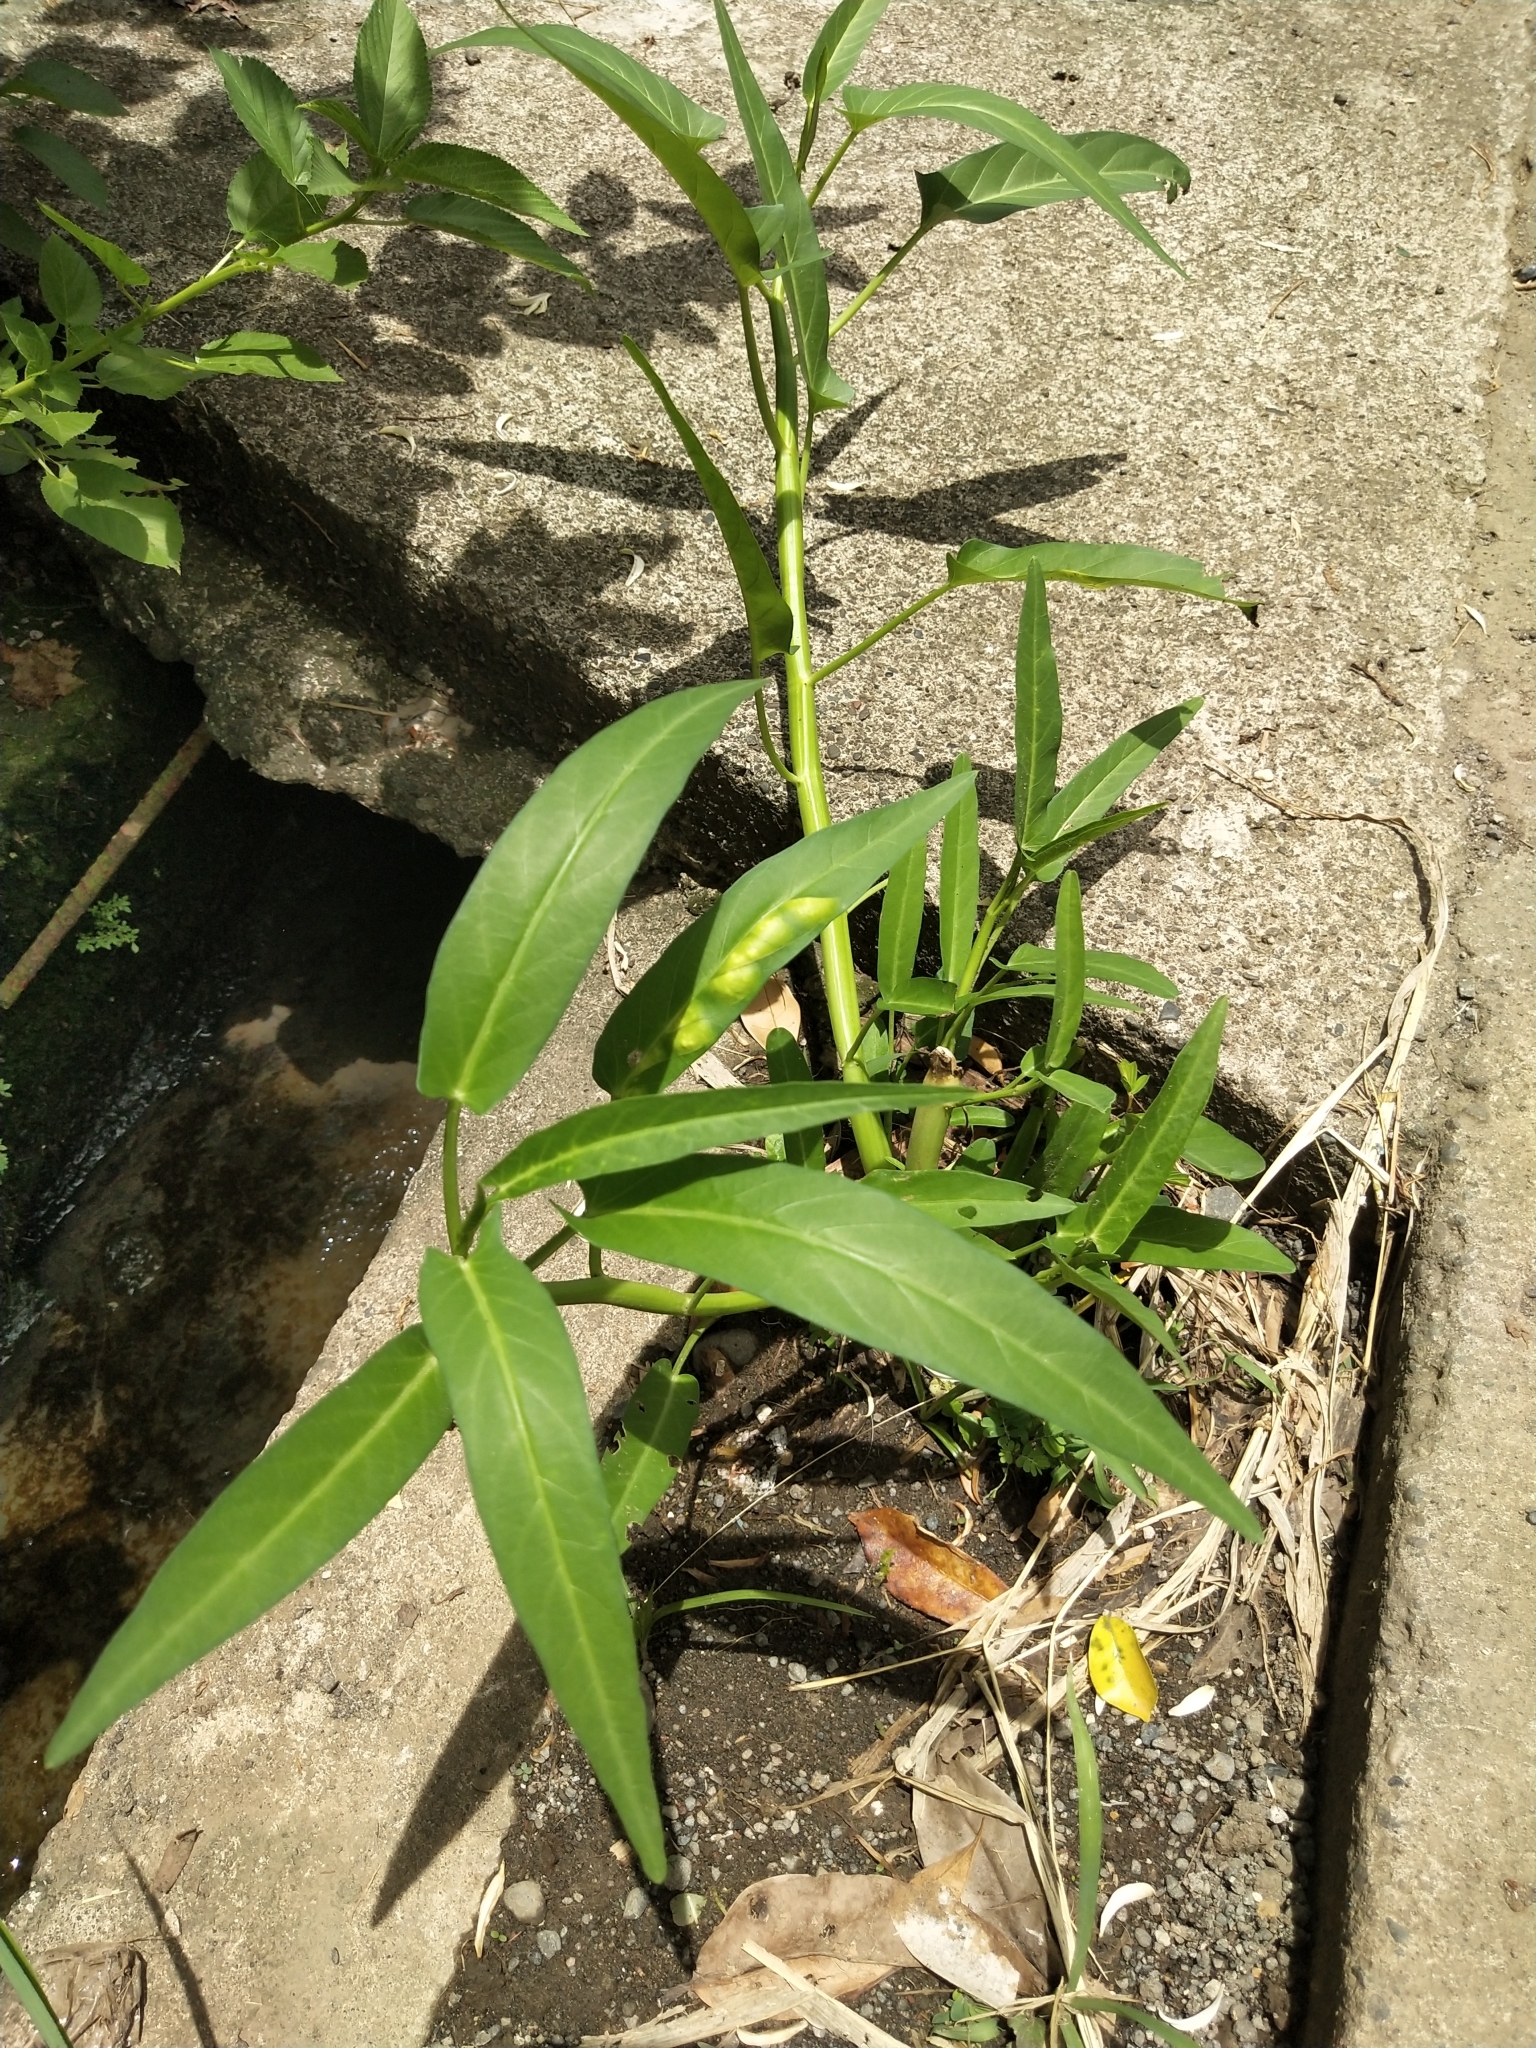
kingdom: Plantae
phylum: Tracheophyta
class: Magnoliopsida
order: Solanales
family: Convolvulaceae
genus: Ipomoea
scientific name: Ipomoea aquatica
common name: Swamp morning-glory
